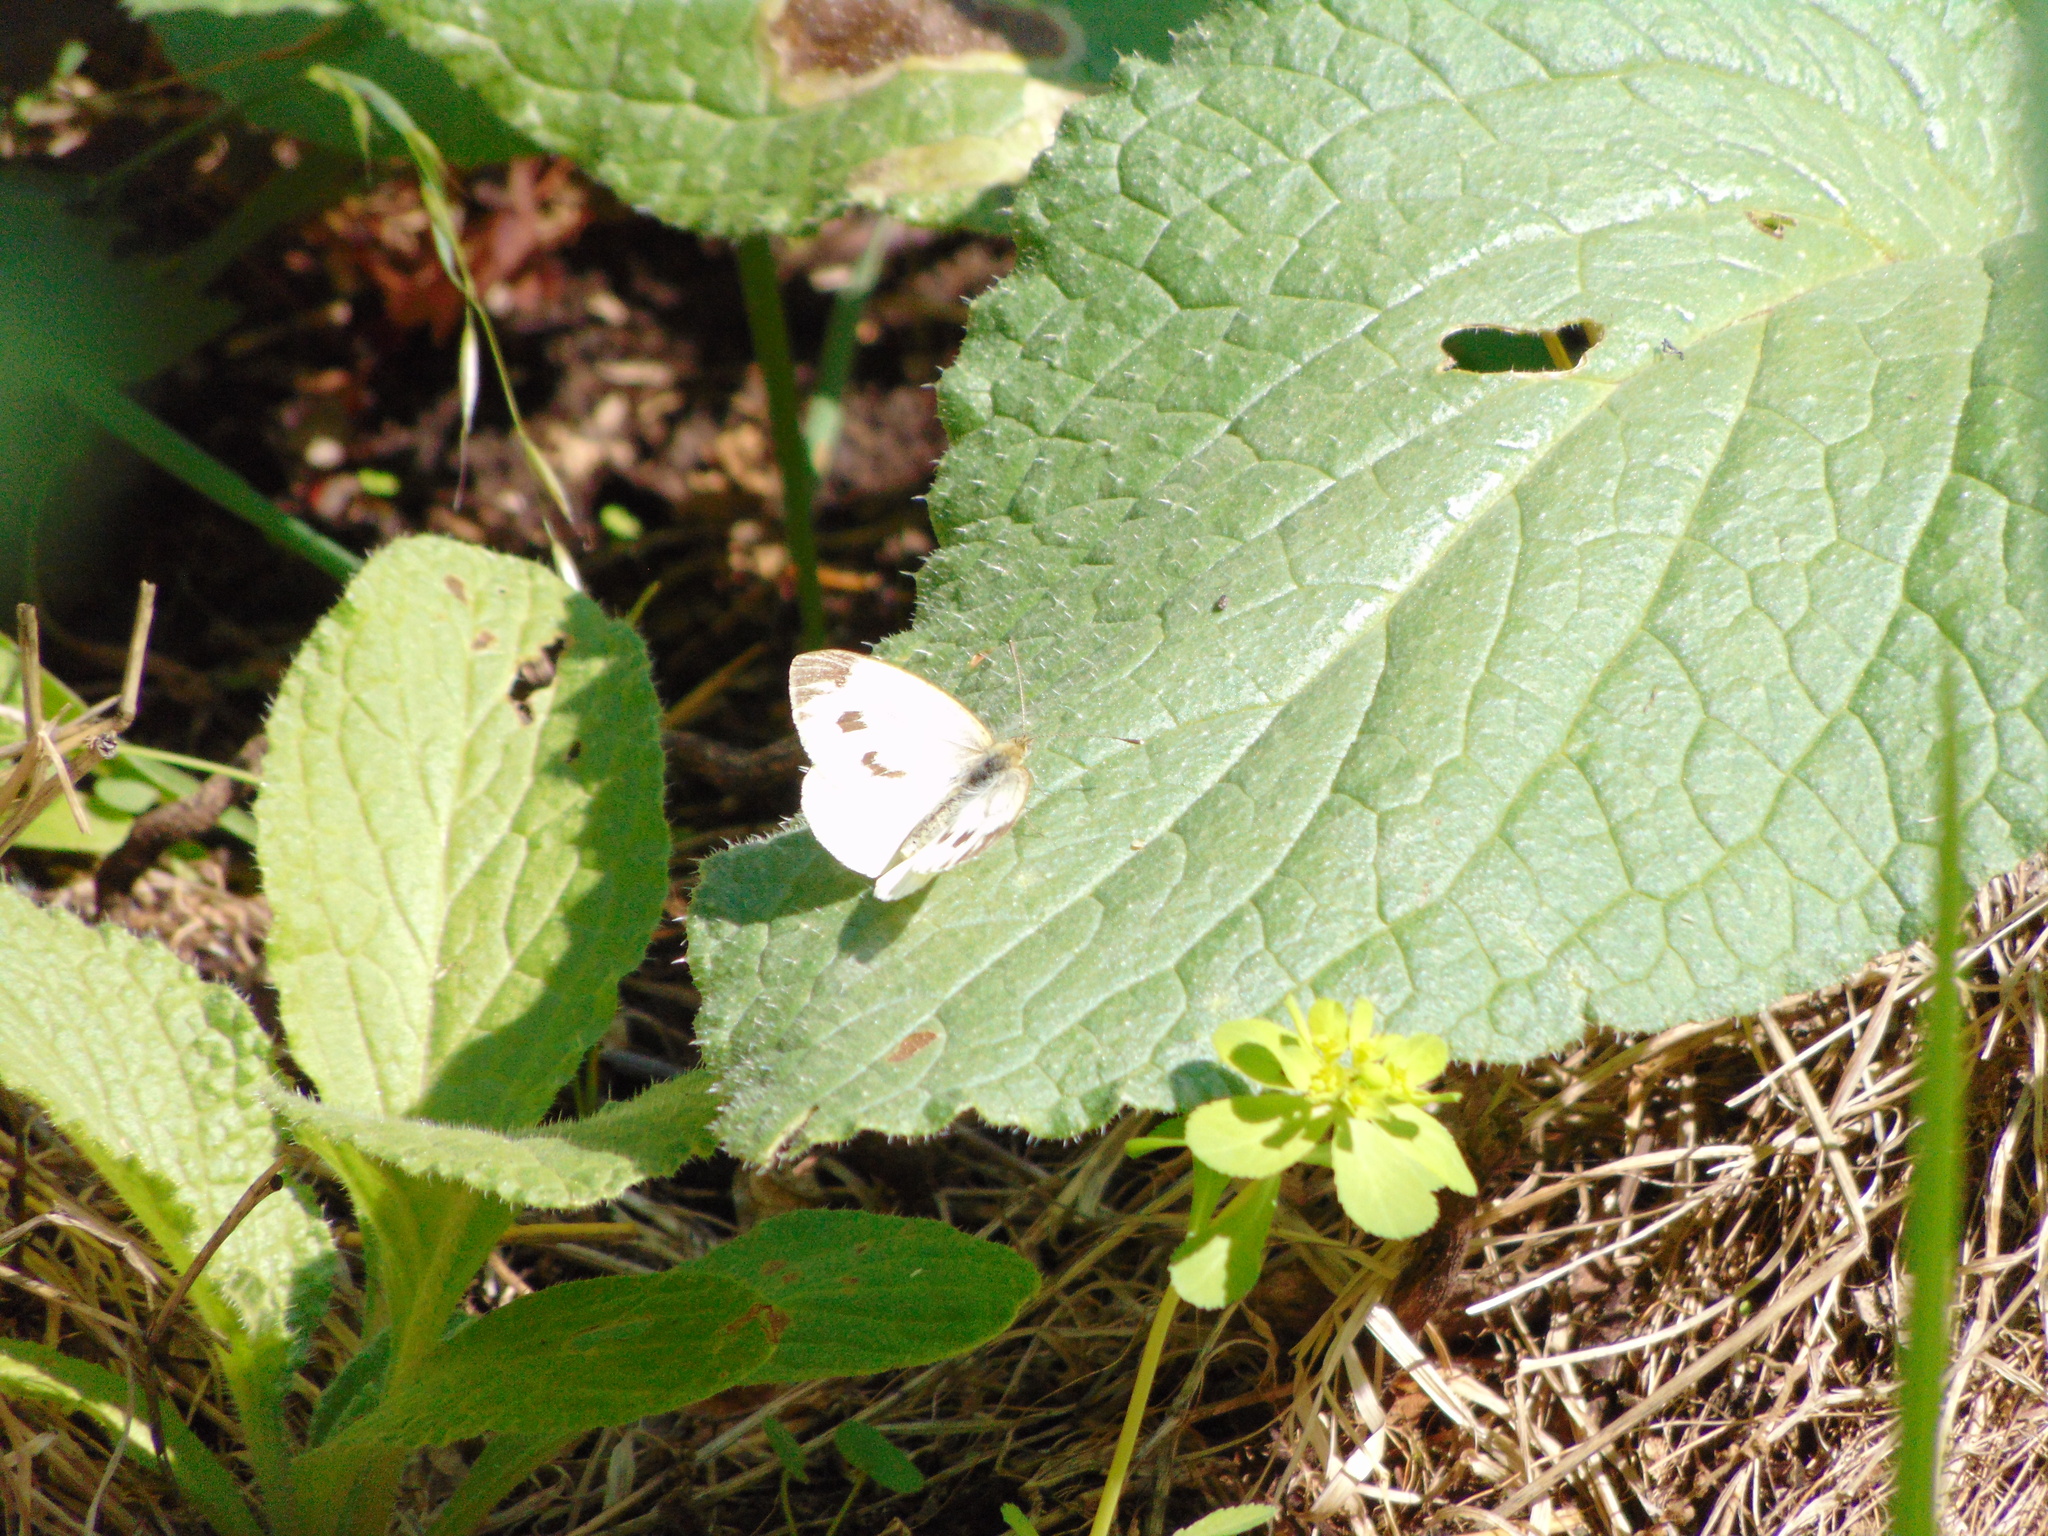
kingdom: Animalia
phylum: Arthropoda
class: Insecta
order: Lepidoptera
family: Pieridae
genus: Pieris
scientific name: Pieris napi
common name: Green-veined white
